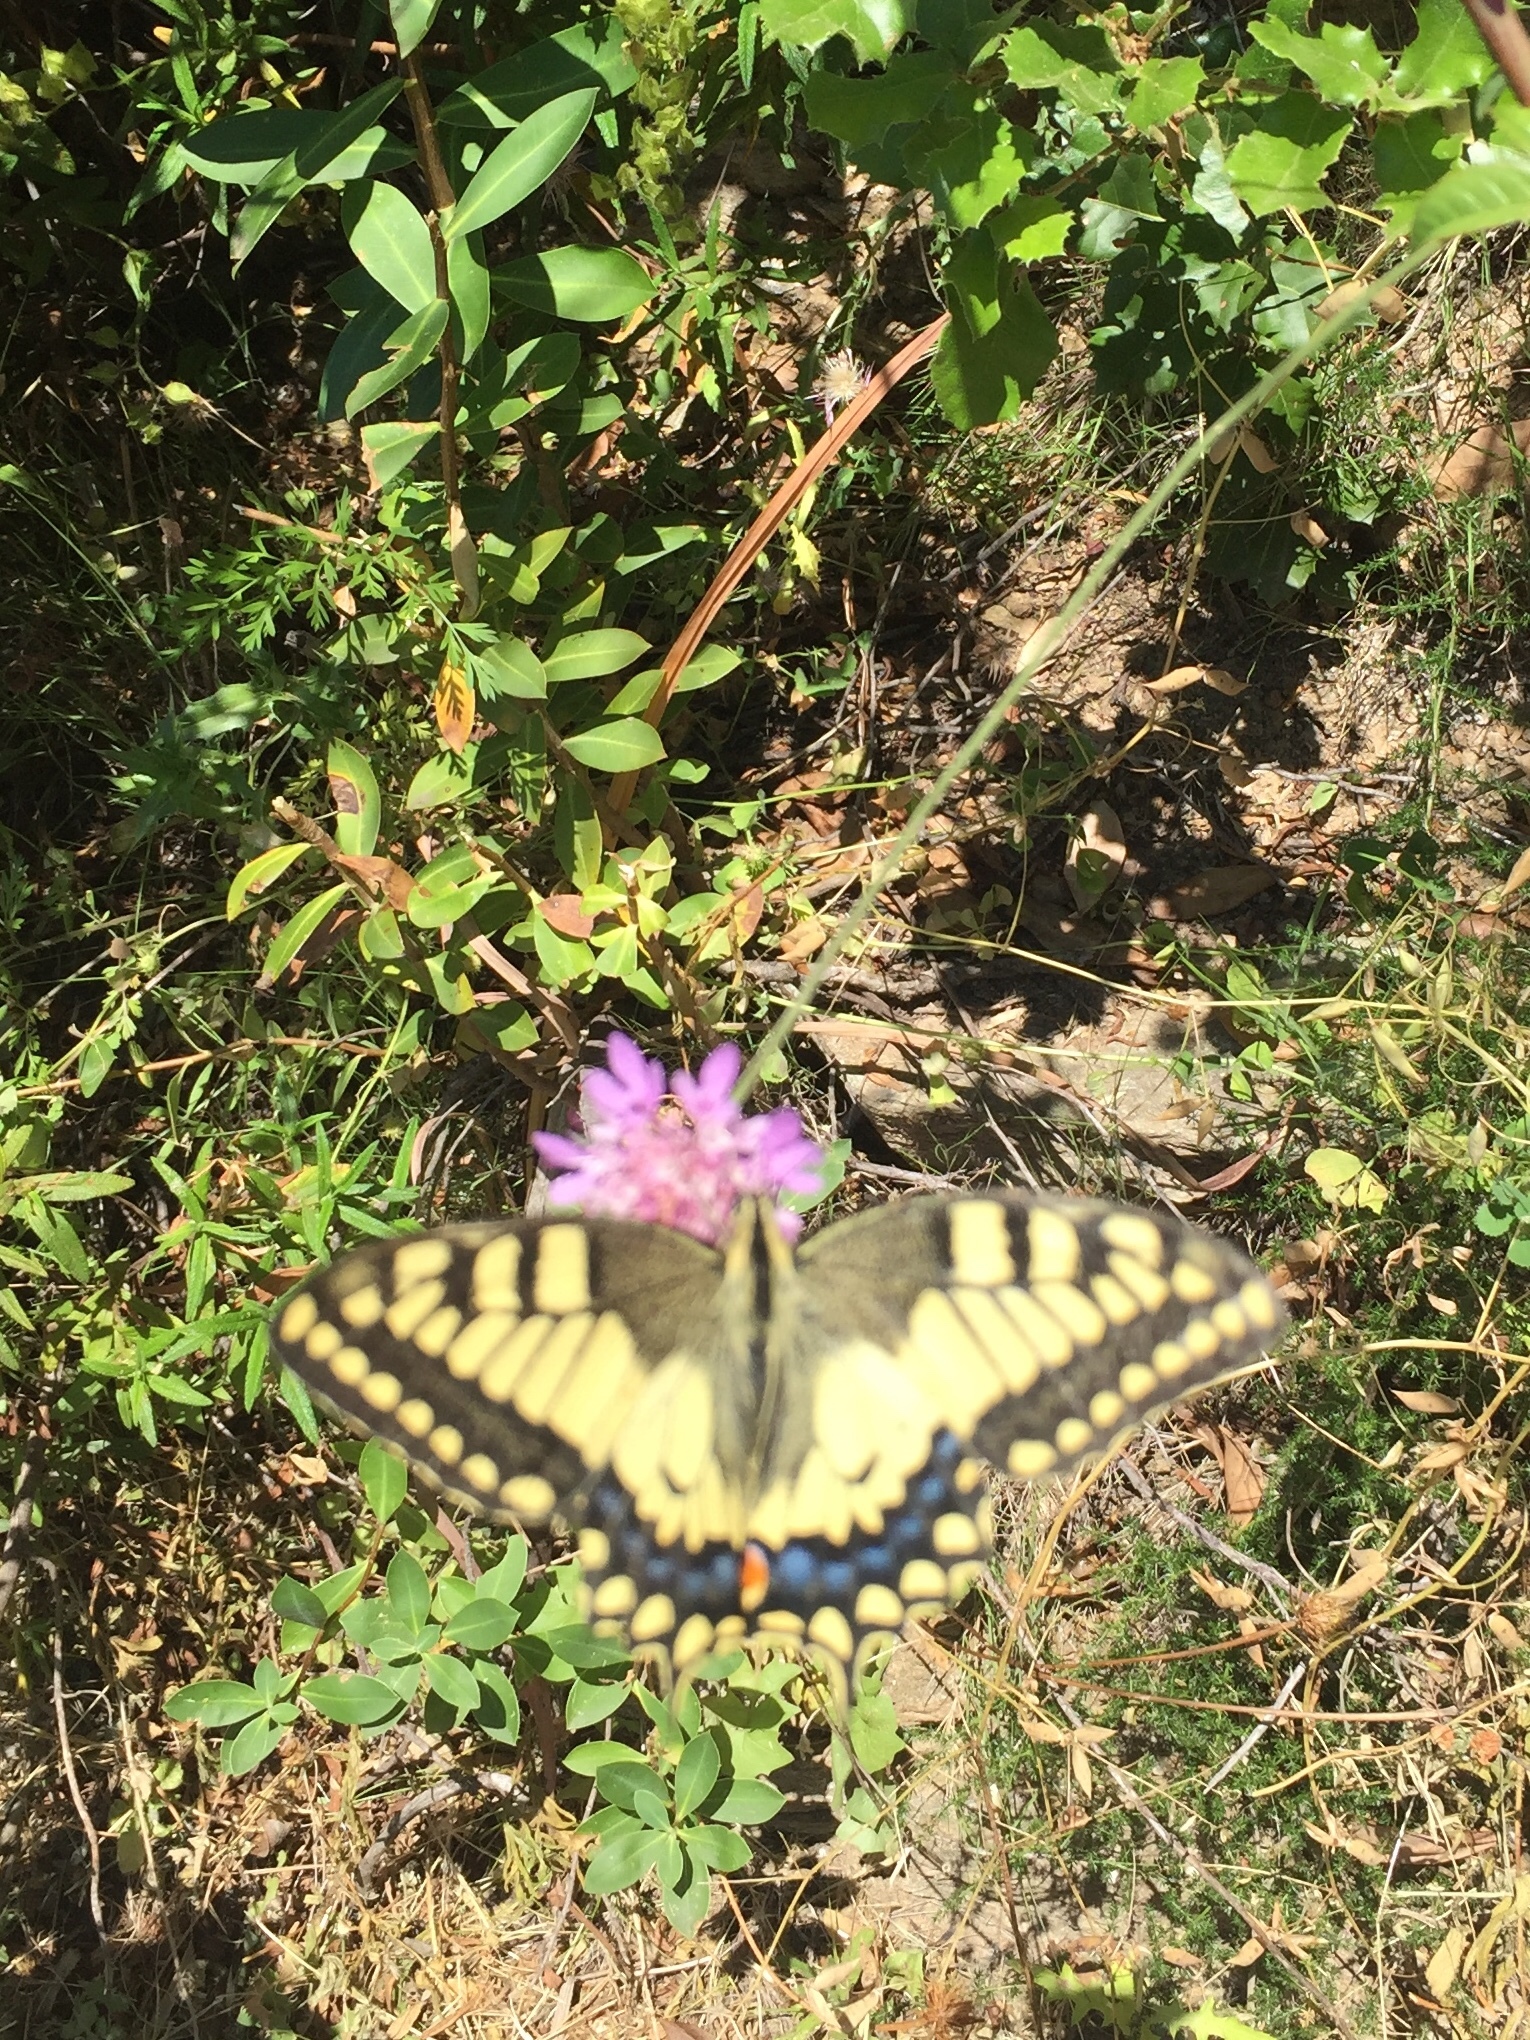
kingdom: Animalia
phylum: Arthropoda
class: Insecta
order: Lepidoptera
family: Papilionidae
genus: Papilio
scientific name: Papilio machaon
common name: Swallowtail
